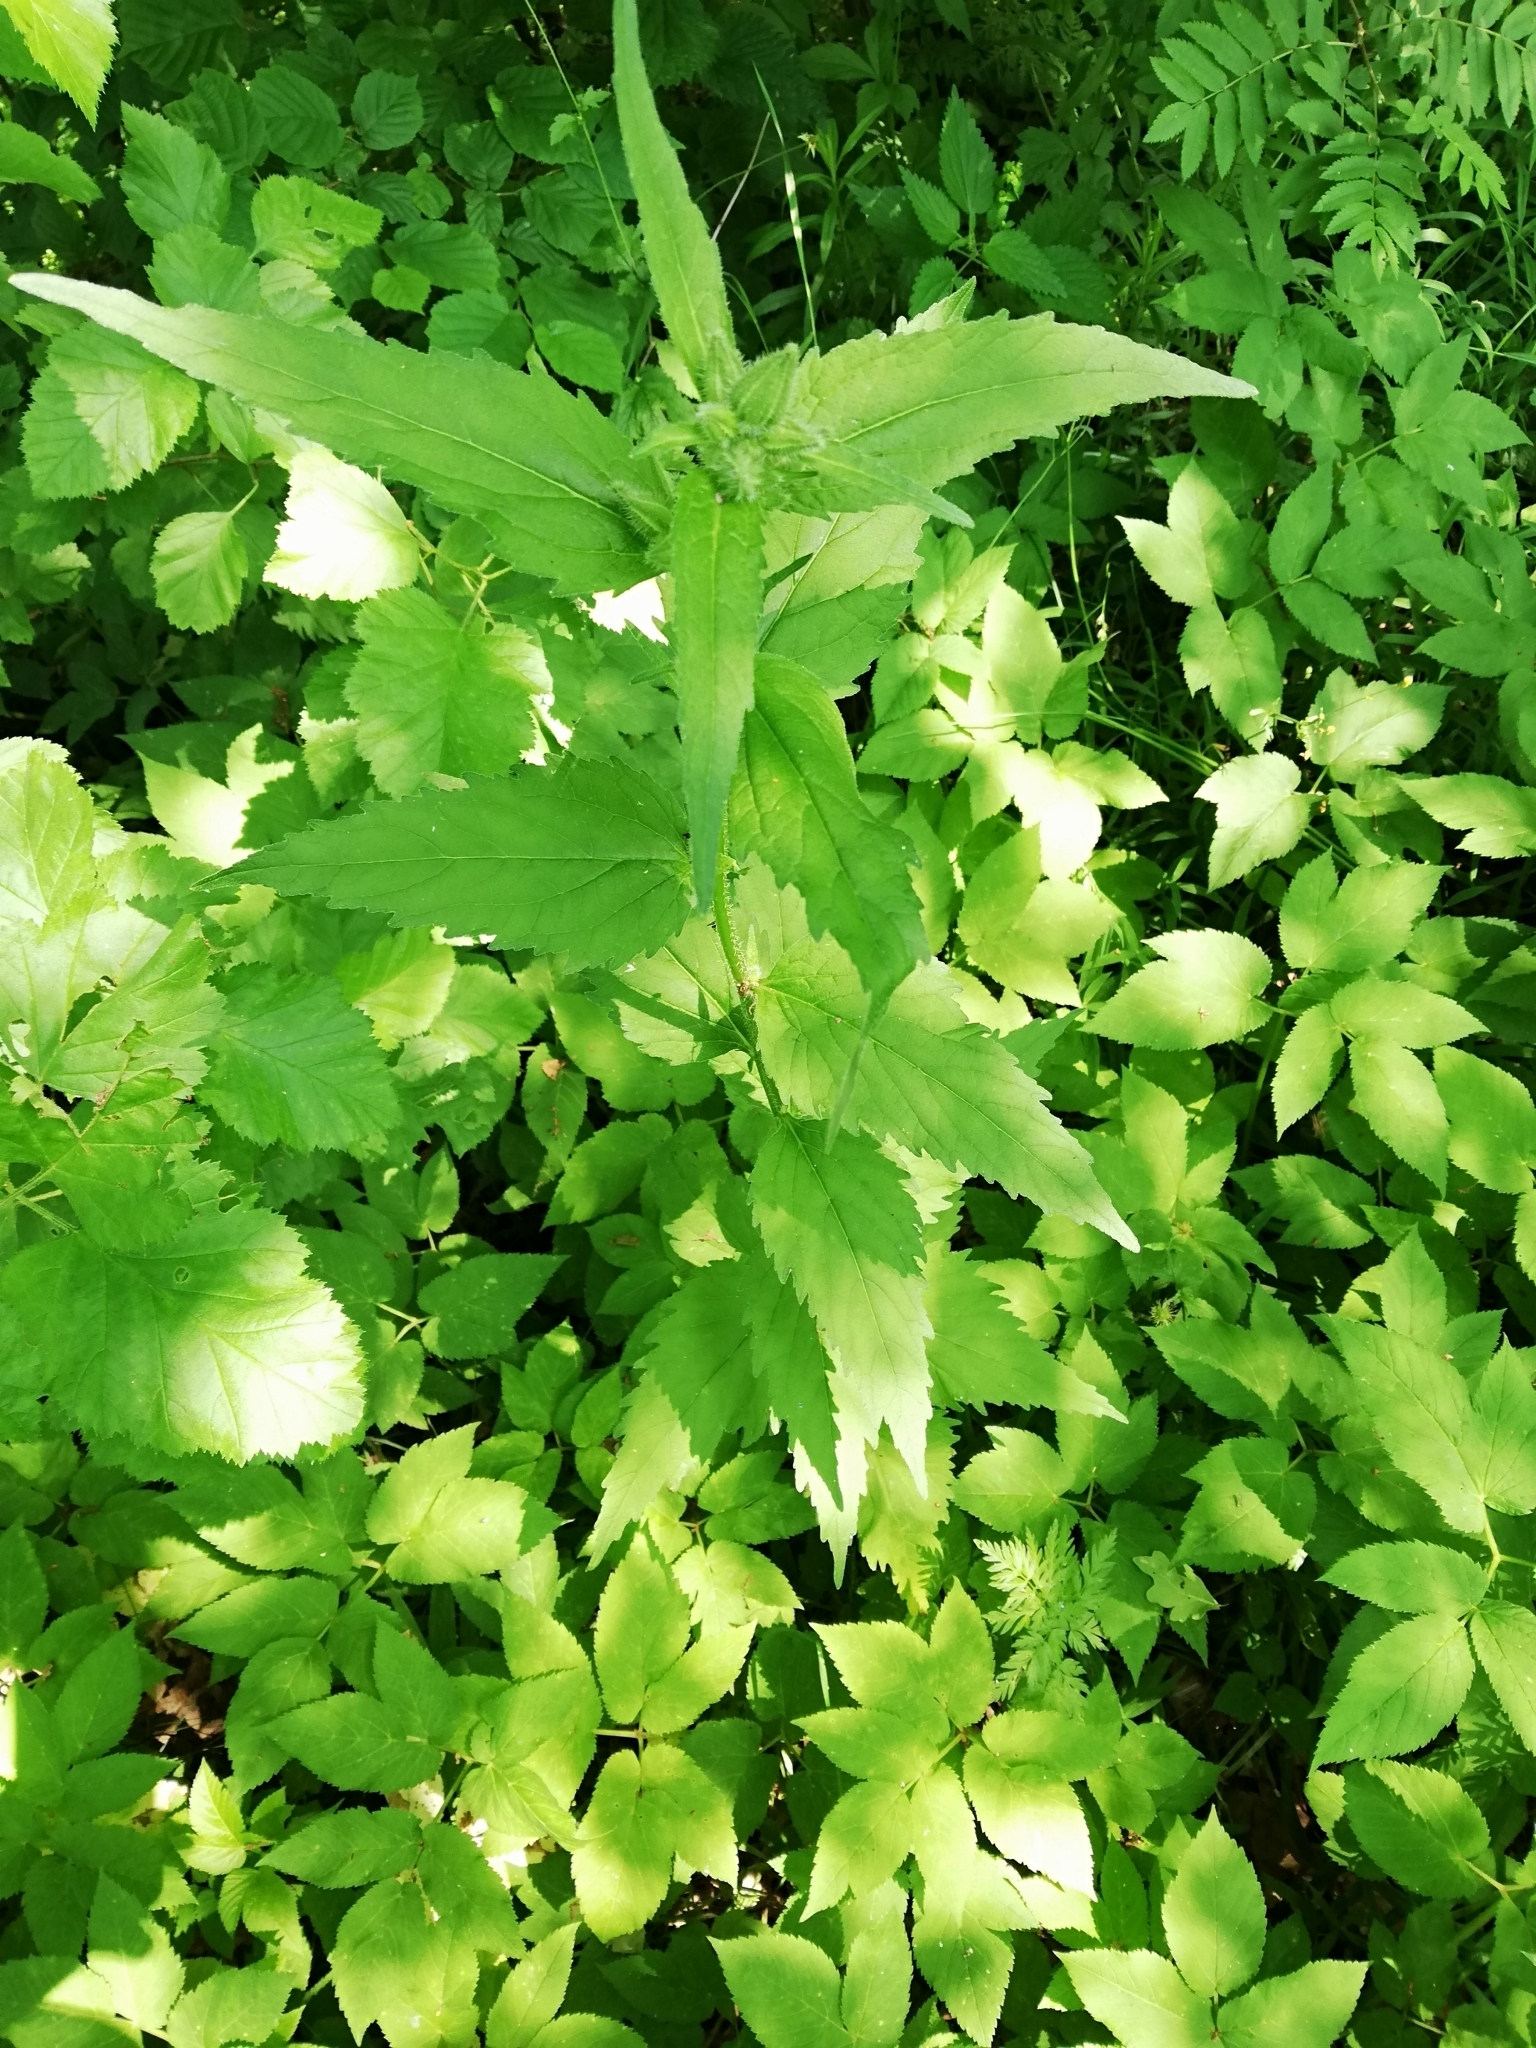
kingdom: Plantae
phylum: Tracheophyta
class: Magnoliopsida
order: Asterales
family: Campanulaceae
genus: Campanula
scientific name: Campanula trachelium
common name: Nettle-leaved bellflower
